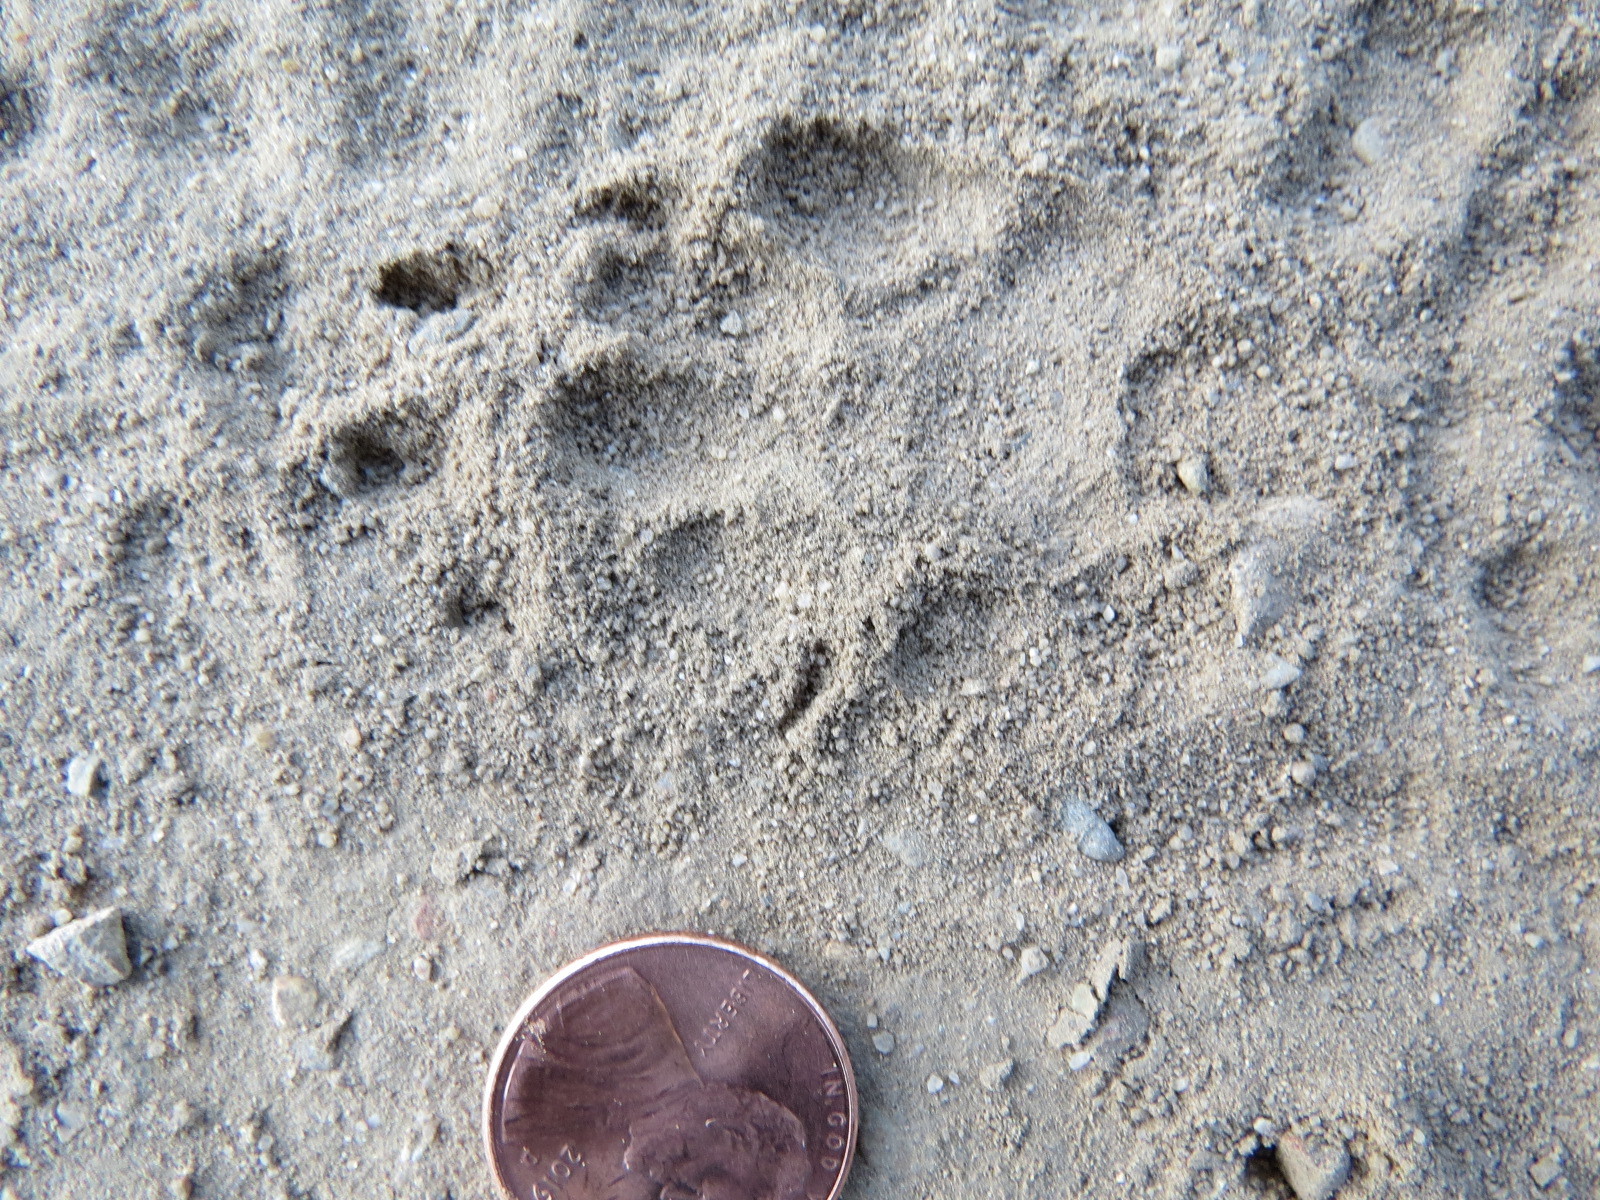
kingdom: Animalia
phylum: Chordata
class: Mammalia
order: Carnivora
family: Mephitidae
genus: Mephitis
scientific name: Mephitis mephitis
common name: Striped skunk
